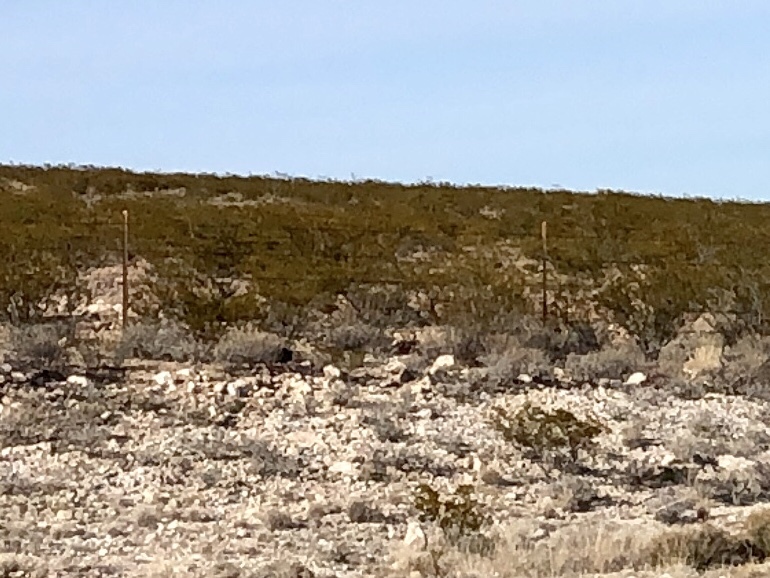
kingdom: Plantae
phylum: Tracheophyta
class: Magnoliopsida
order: Zygophyllales
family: Zygophyllaceae
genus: Larrea
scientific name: Larrea tridentata
